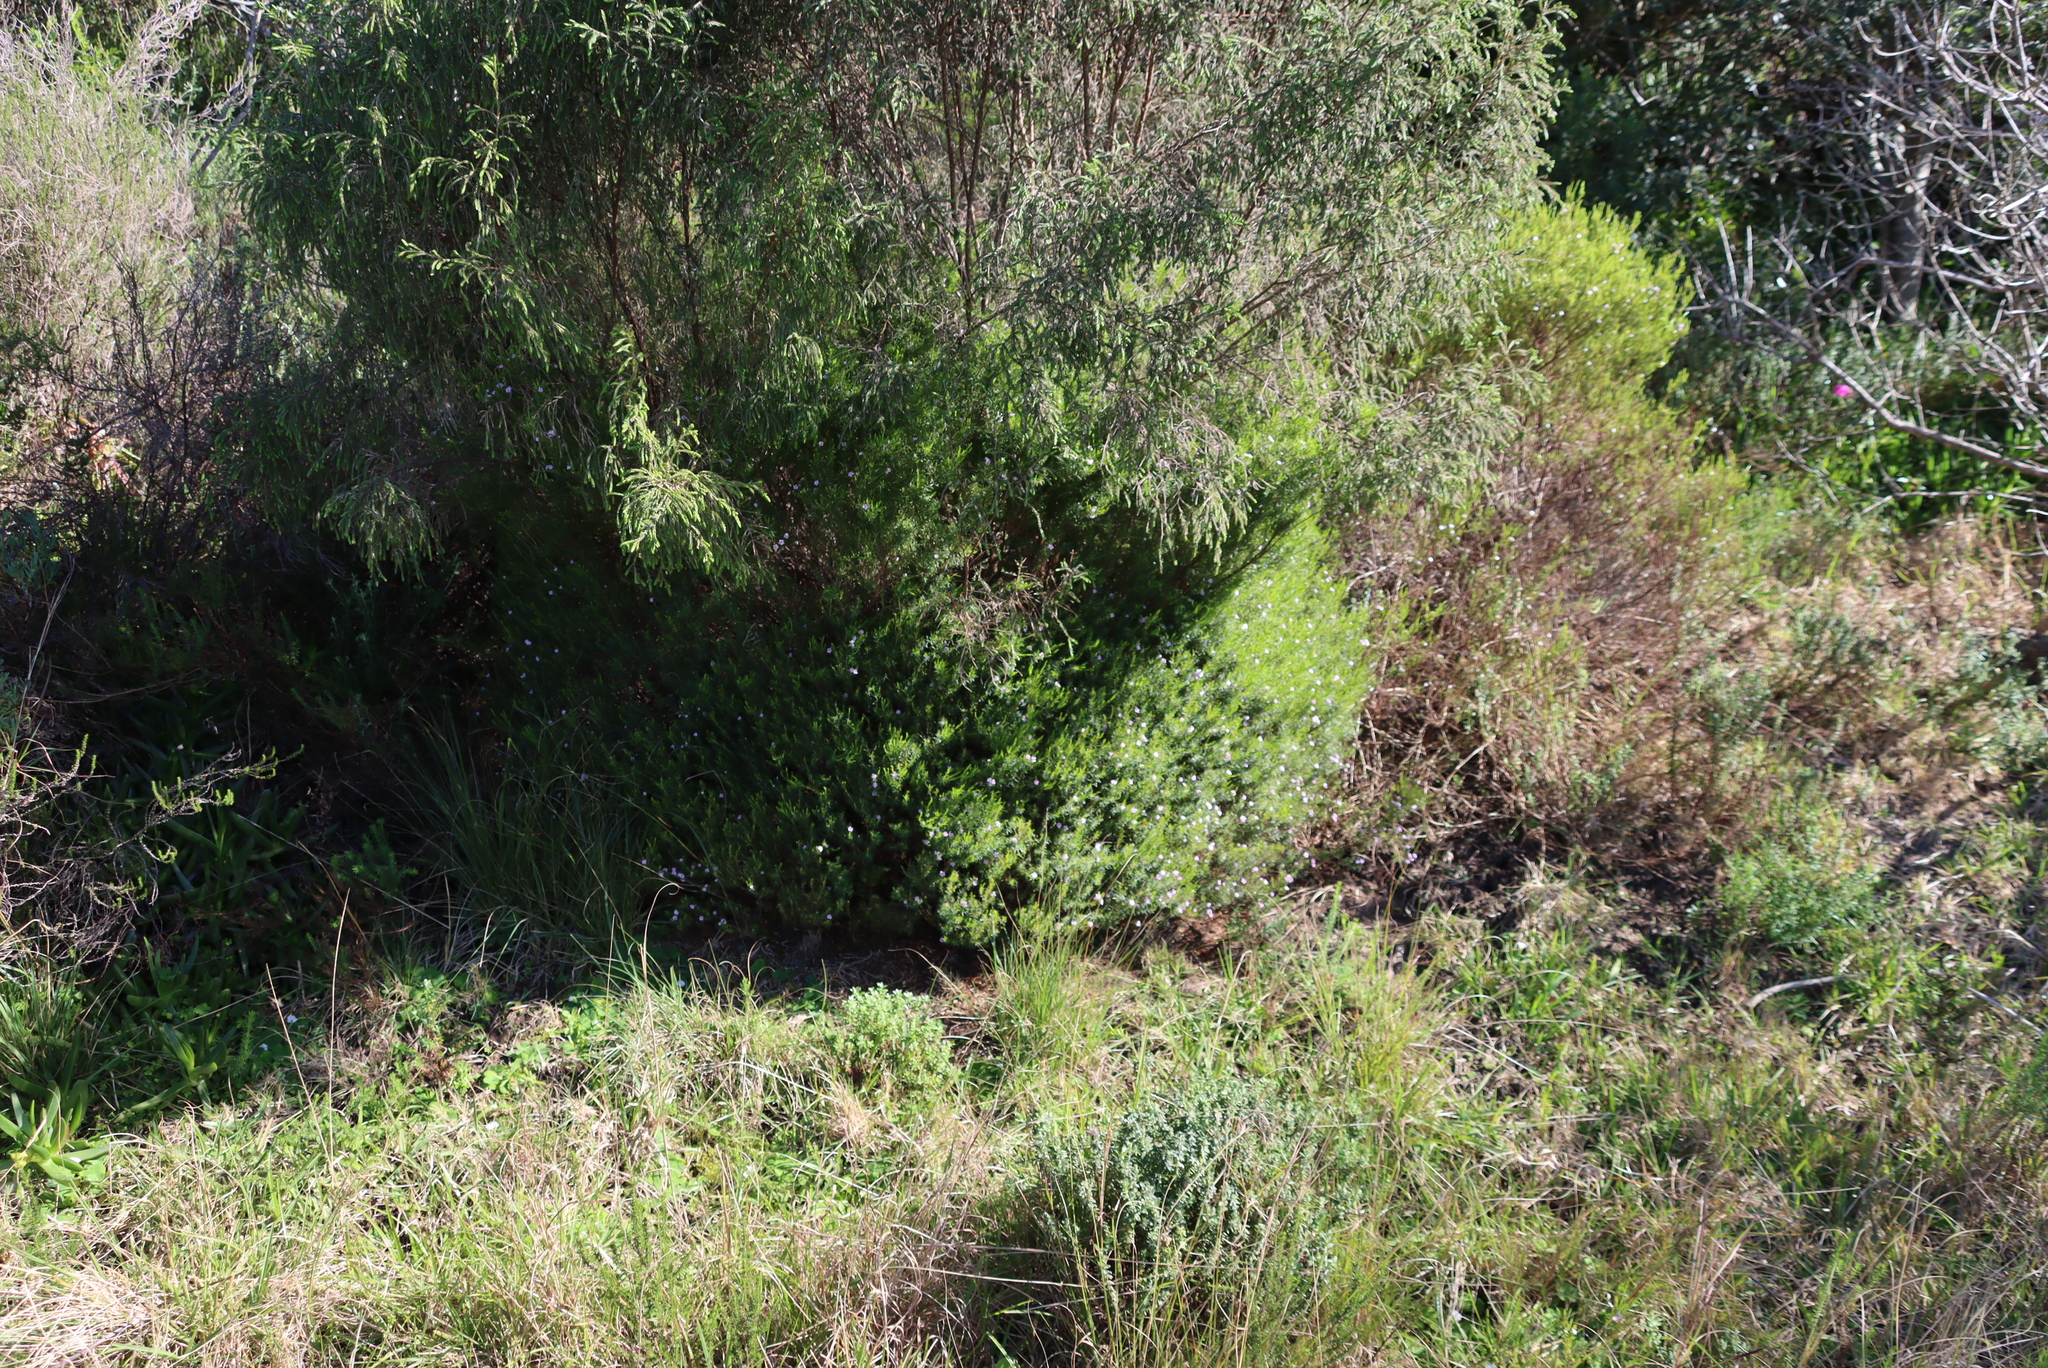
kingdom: Plantae
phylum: Tracheophyta
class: Magnoliopsida
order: Sapindales
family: Rutaceae
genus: Coleonema
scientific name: Coleonema pulchellum
